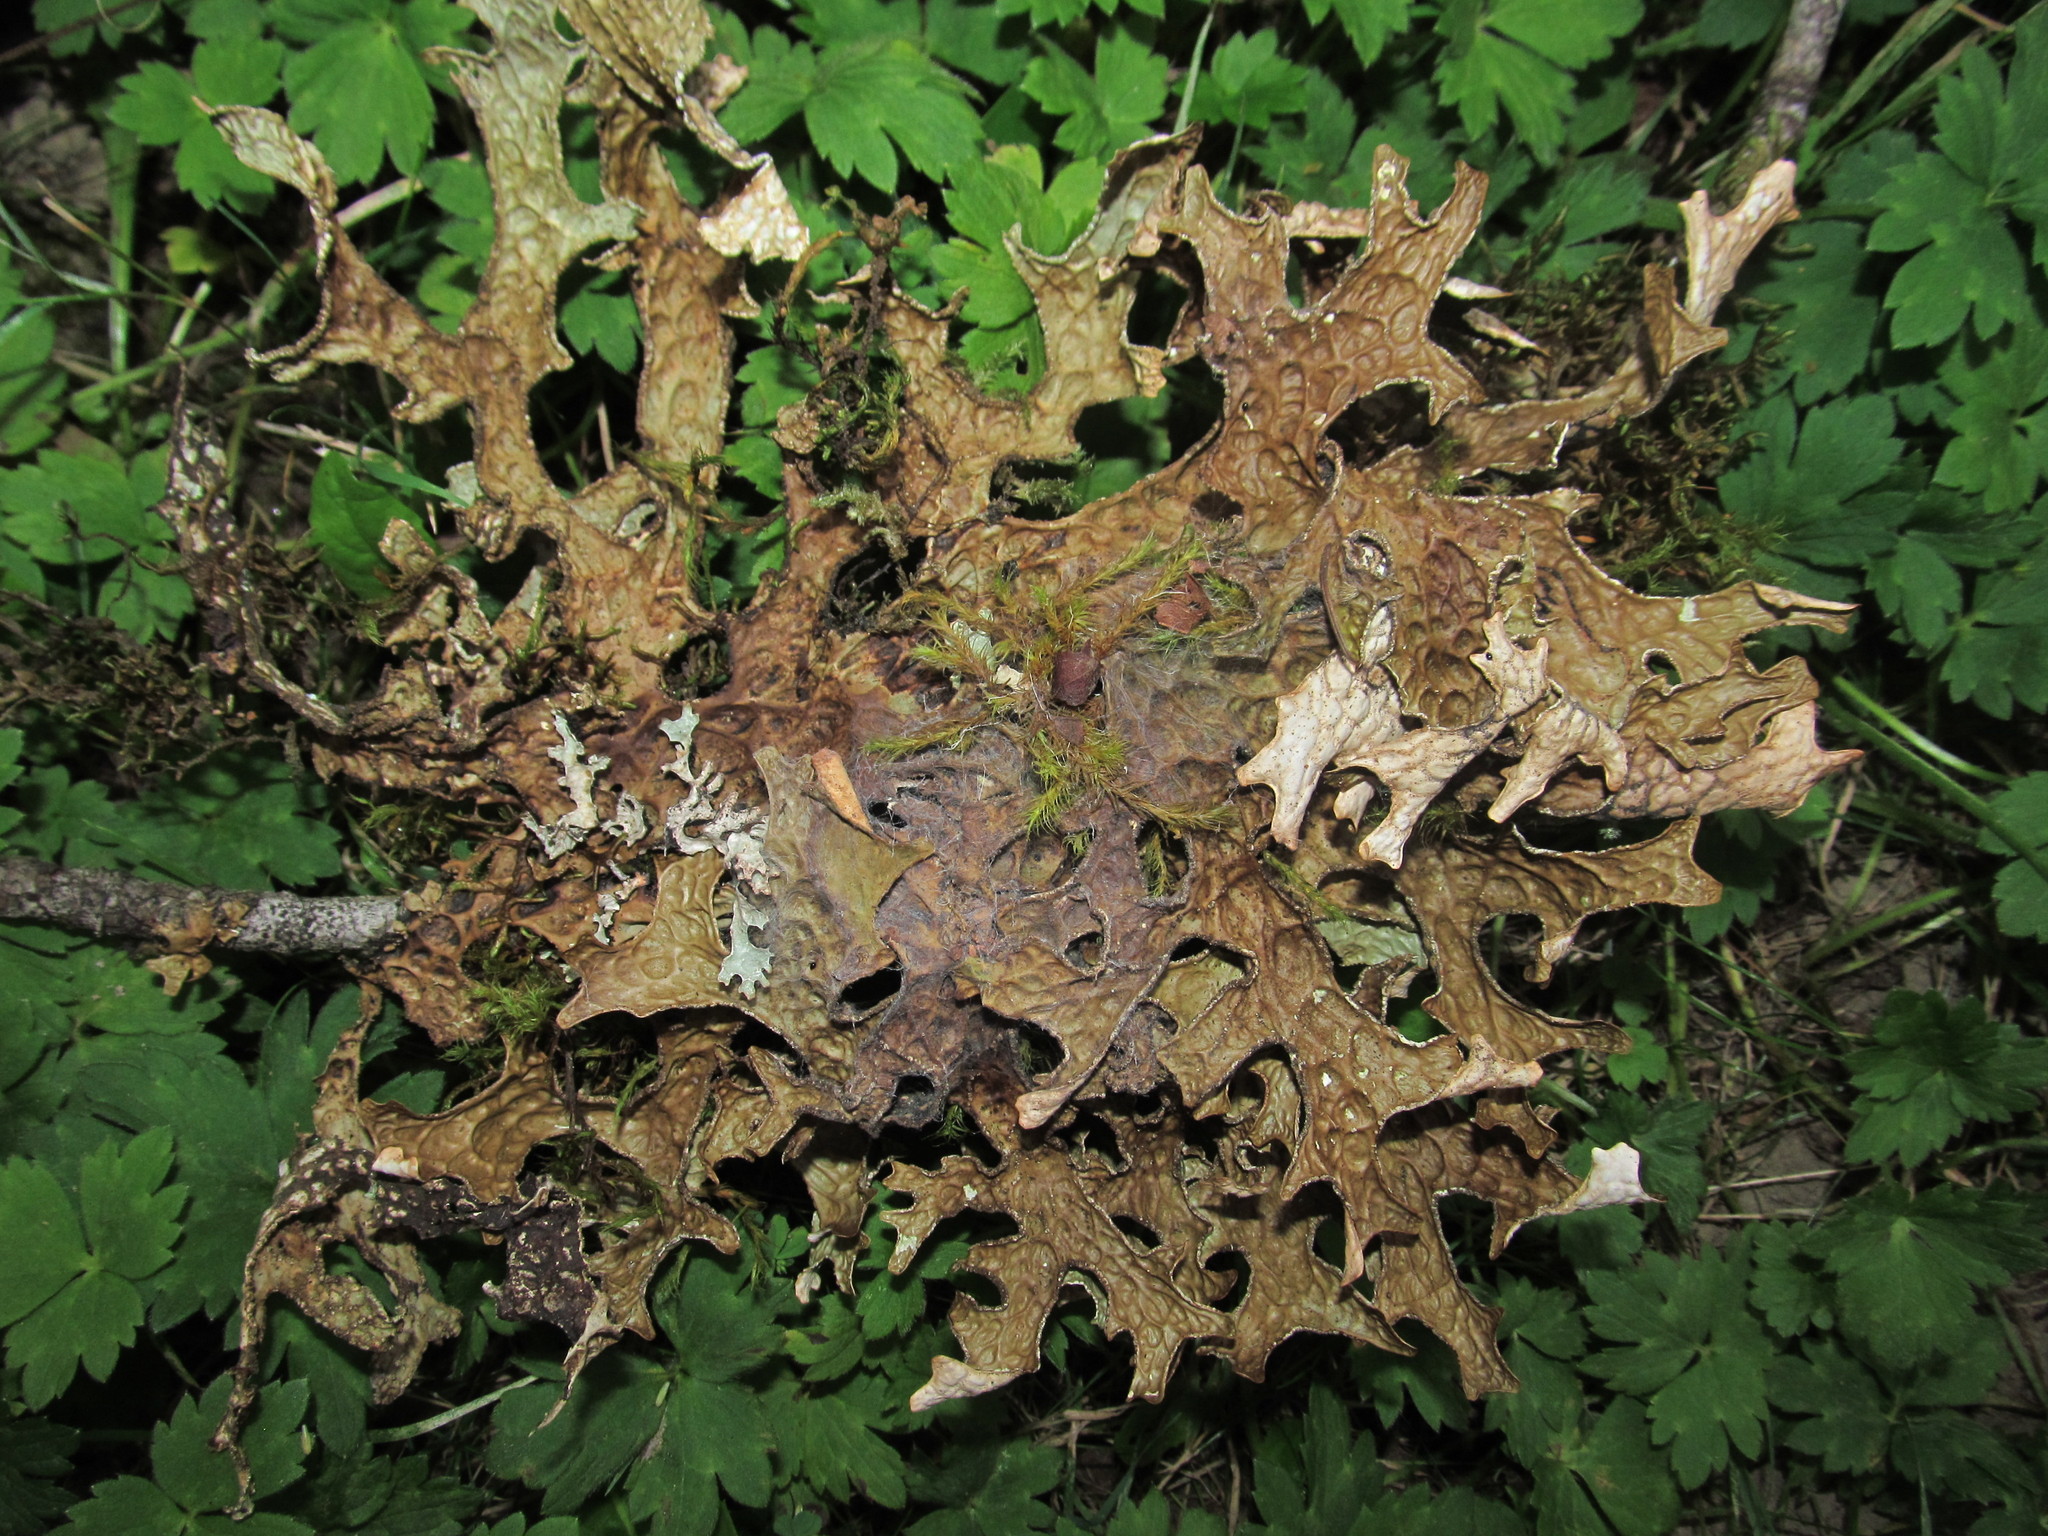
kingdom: Fungi
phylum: Ascomycota
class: Lecanoromycetes
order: Peltigerales
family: Lobariaceae
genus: Lobaria
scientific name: Lobaria pulmonaria
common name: Lungwort
